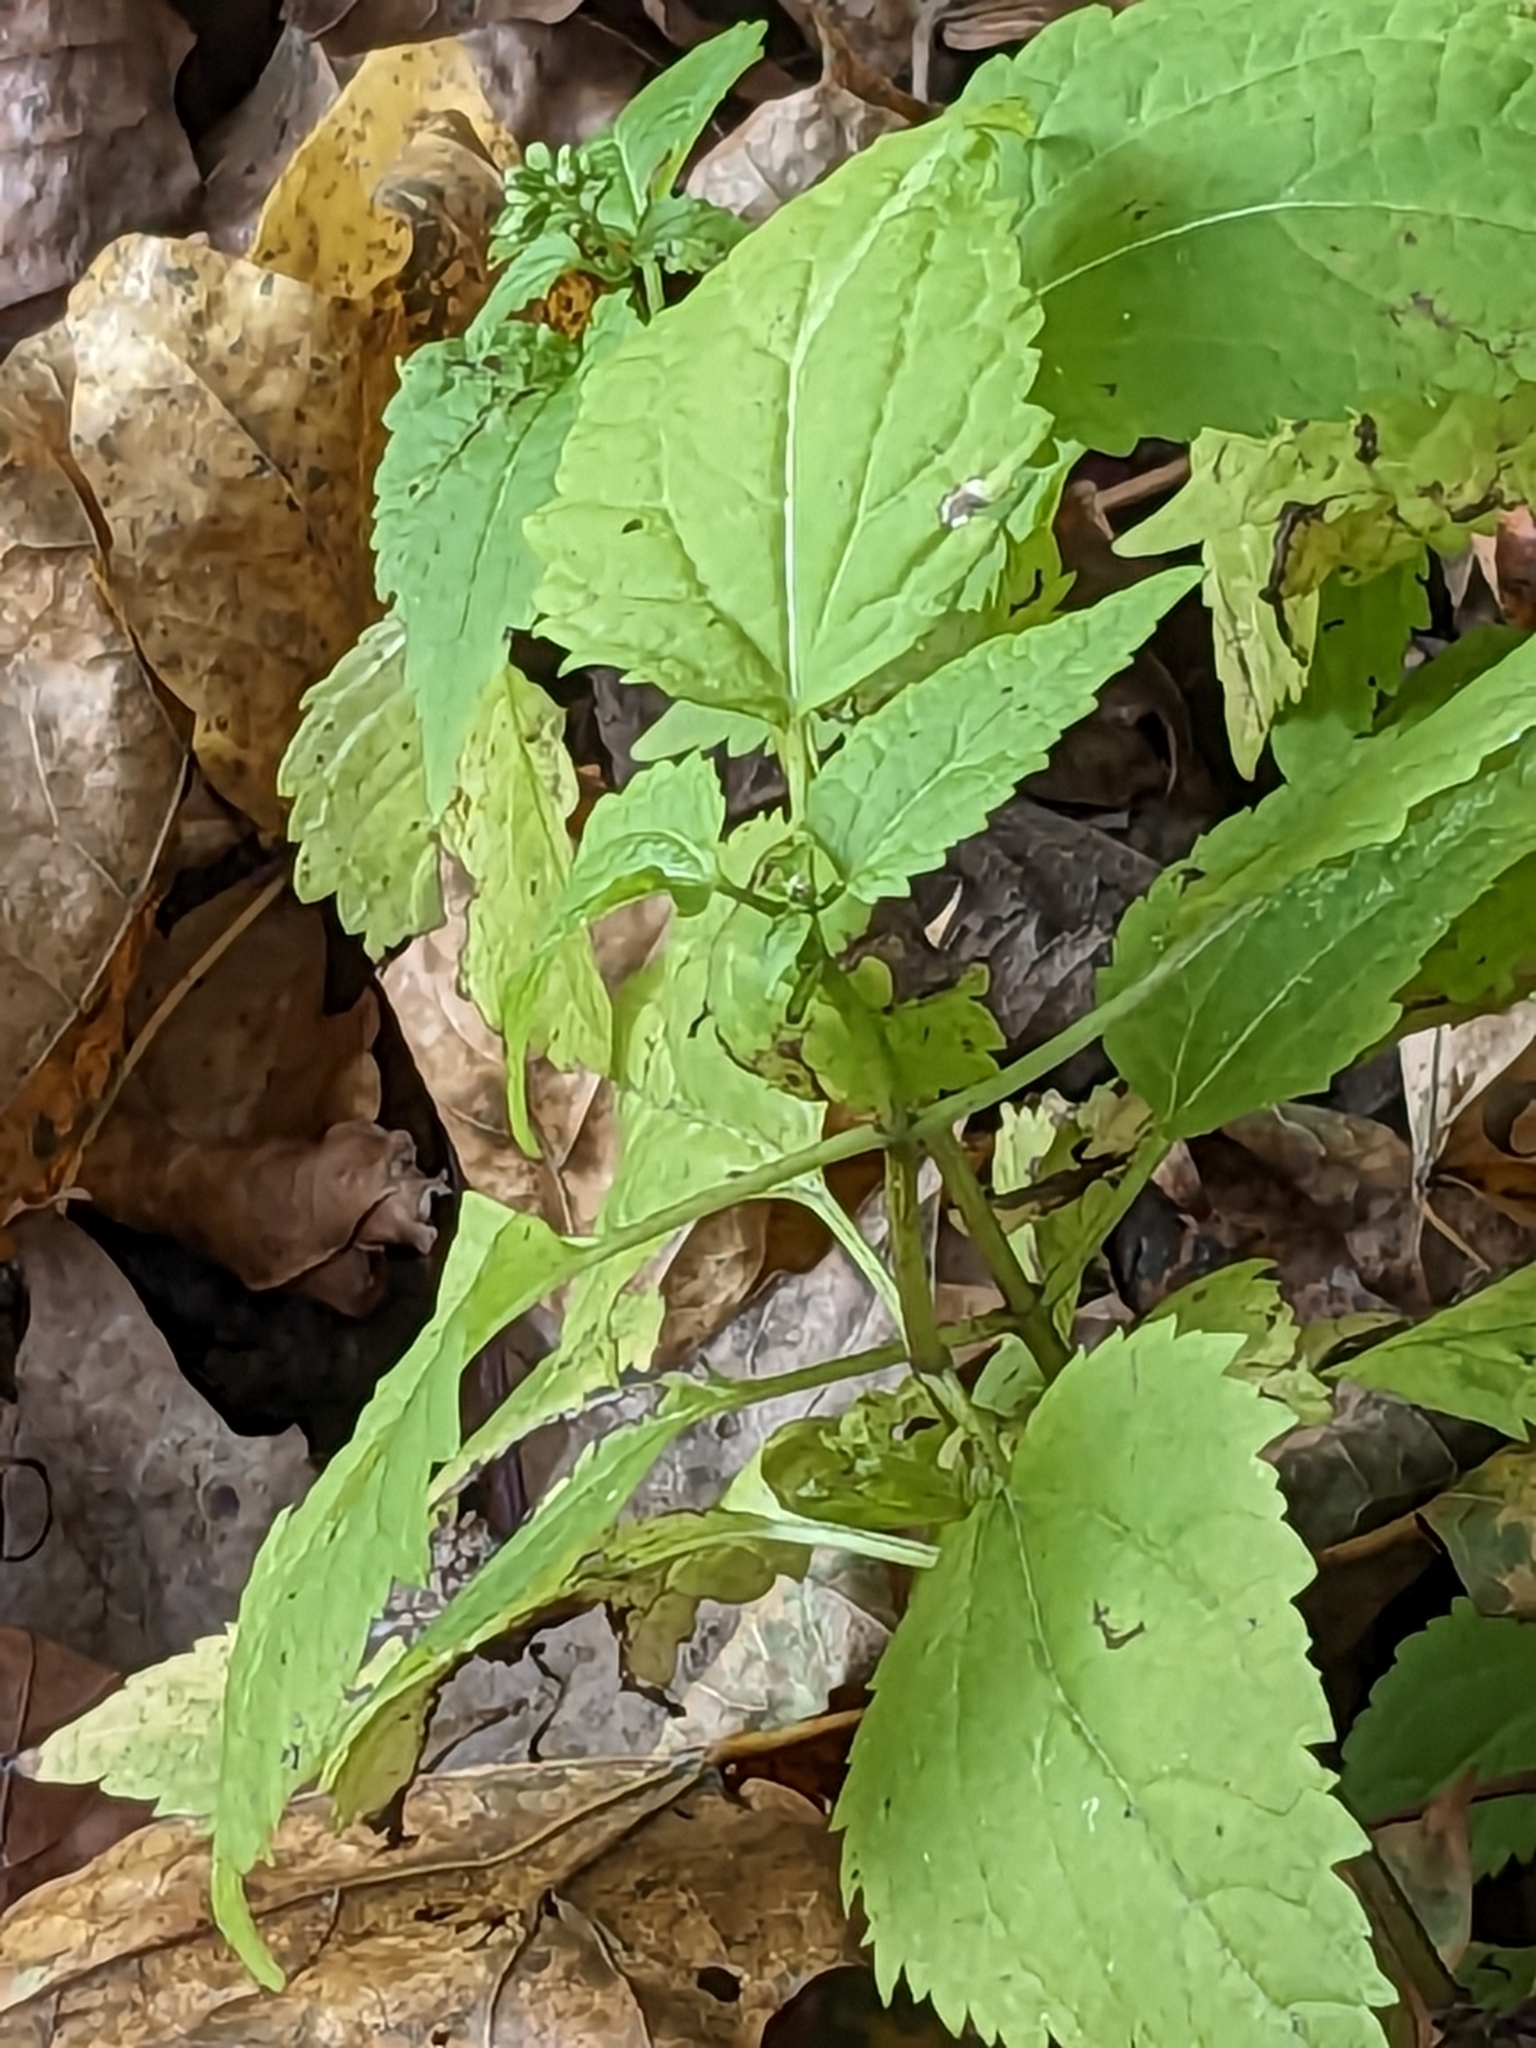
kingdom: Plantae
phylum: Tracheophyta
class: Magnoliopsida
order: Asterales
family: Asteraceae
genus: Ageratina
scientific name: Ageratina altissima
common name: White snakeroot
